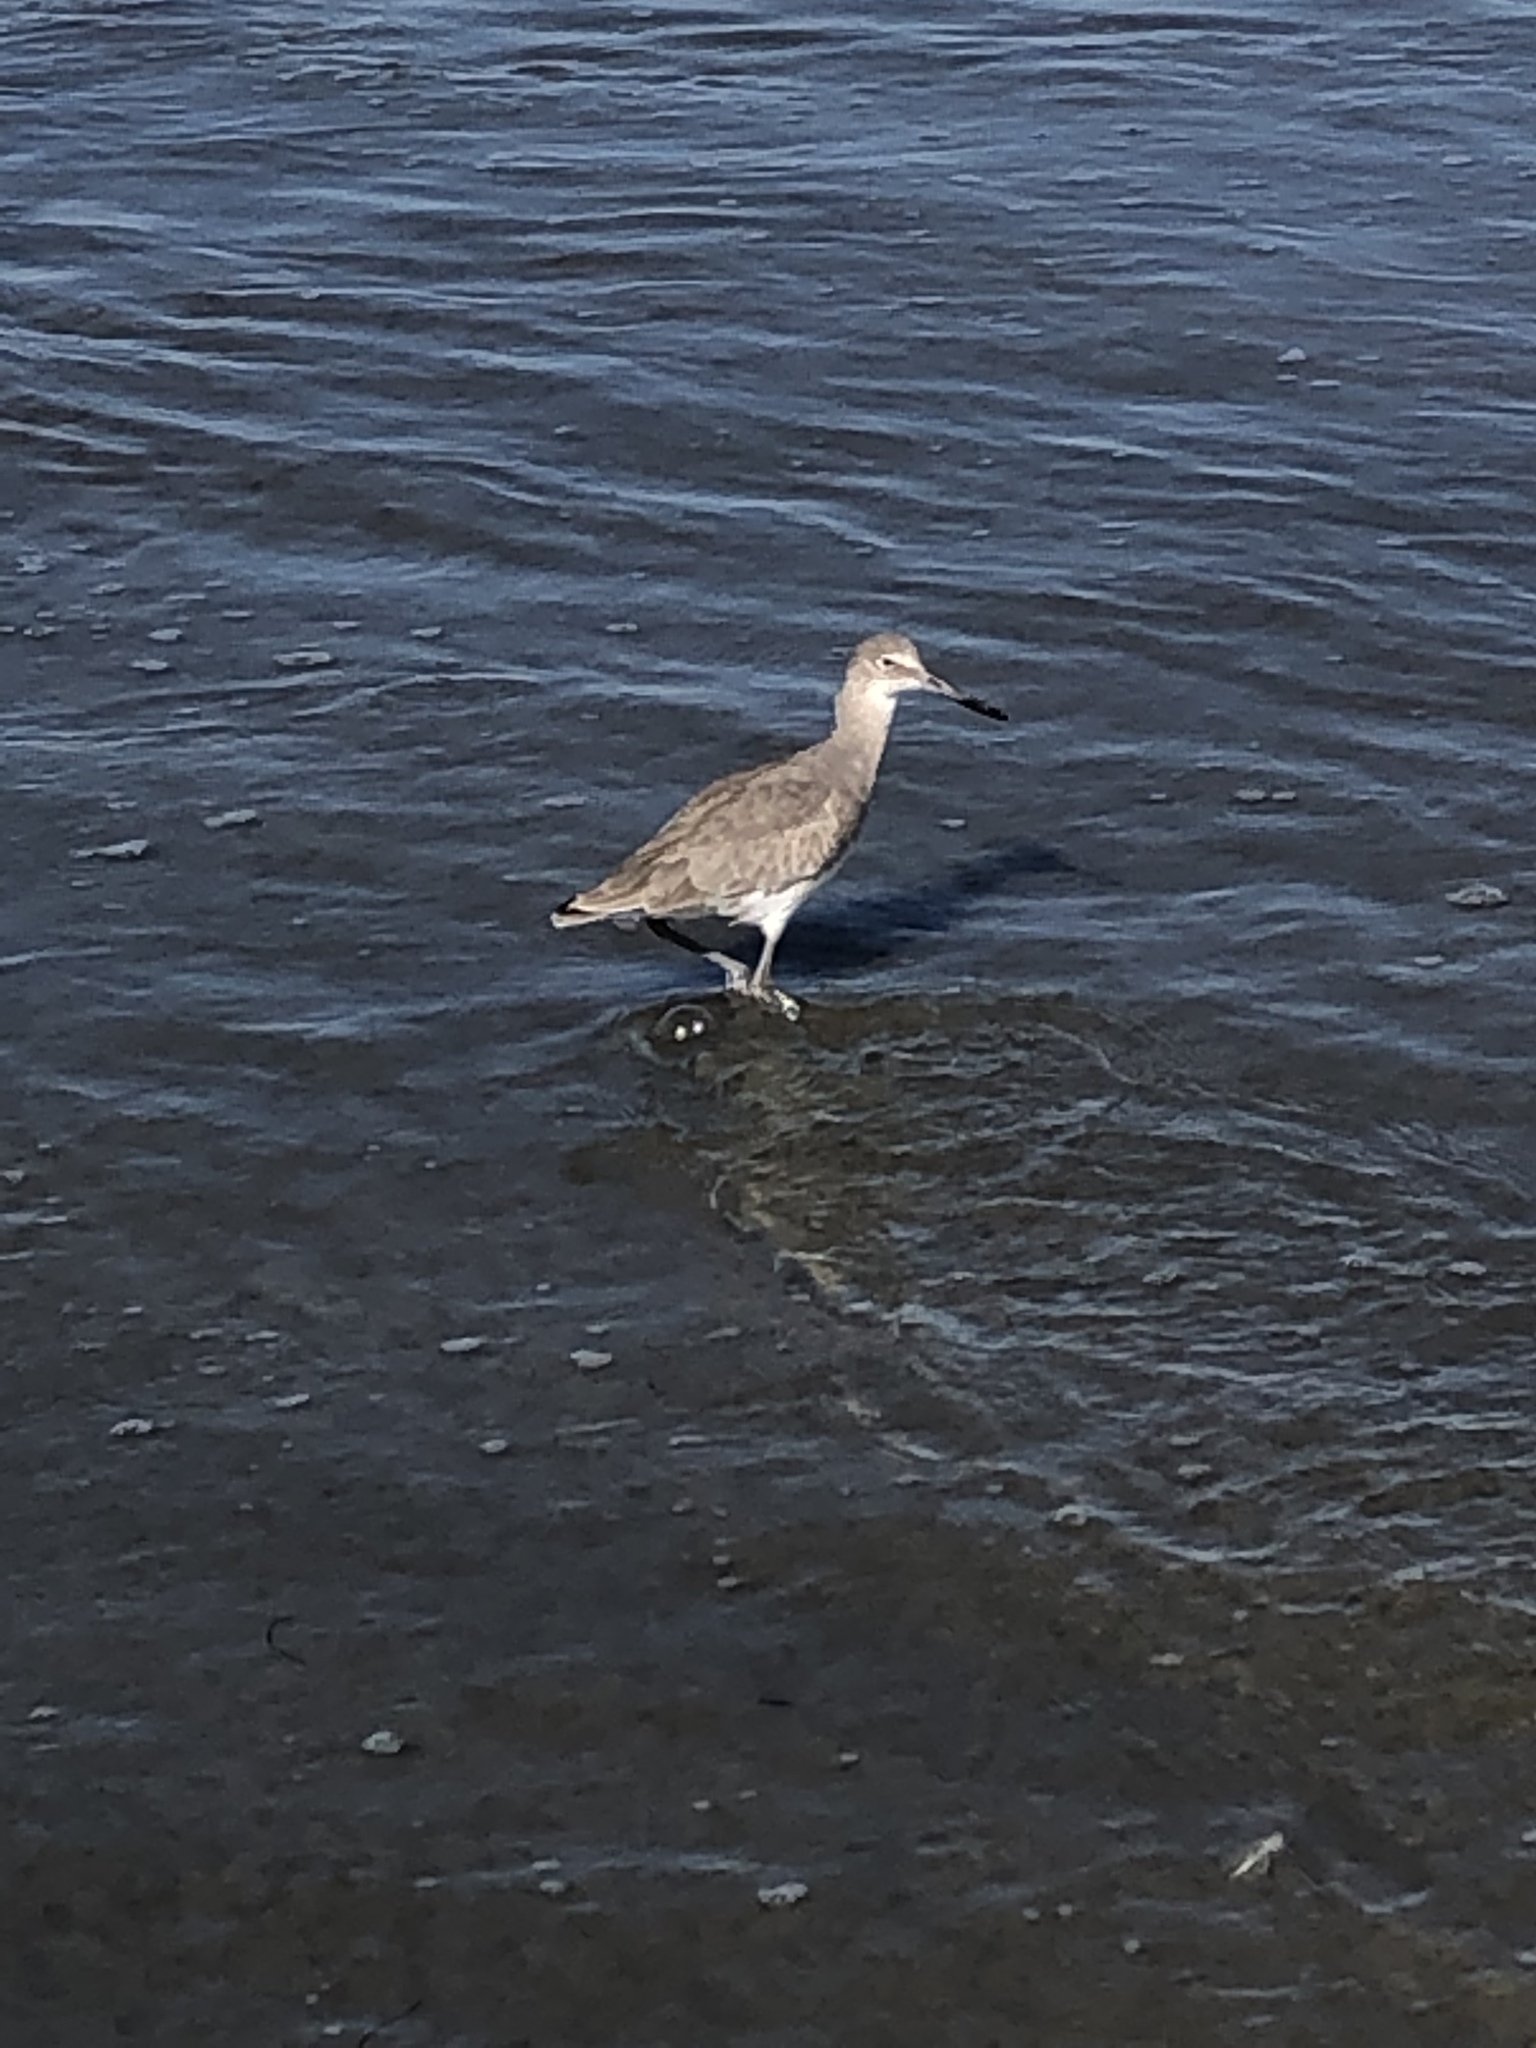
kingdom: Animalia
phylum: Chordata
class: Aves
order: Charadriiformes
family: Scolopacidae
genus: Tringa
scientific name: Tringa semipalmata
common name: Willet
